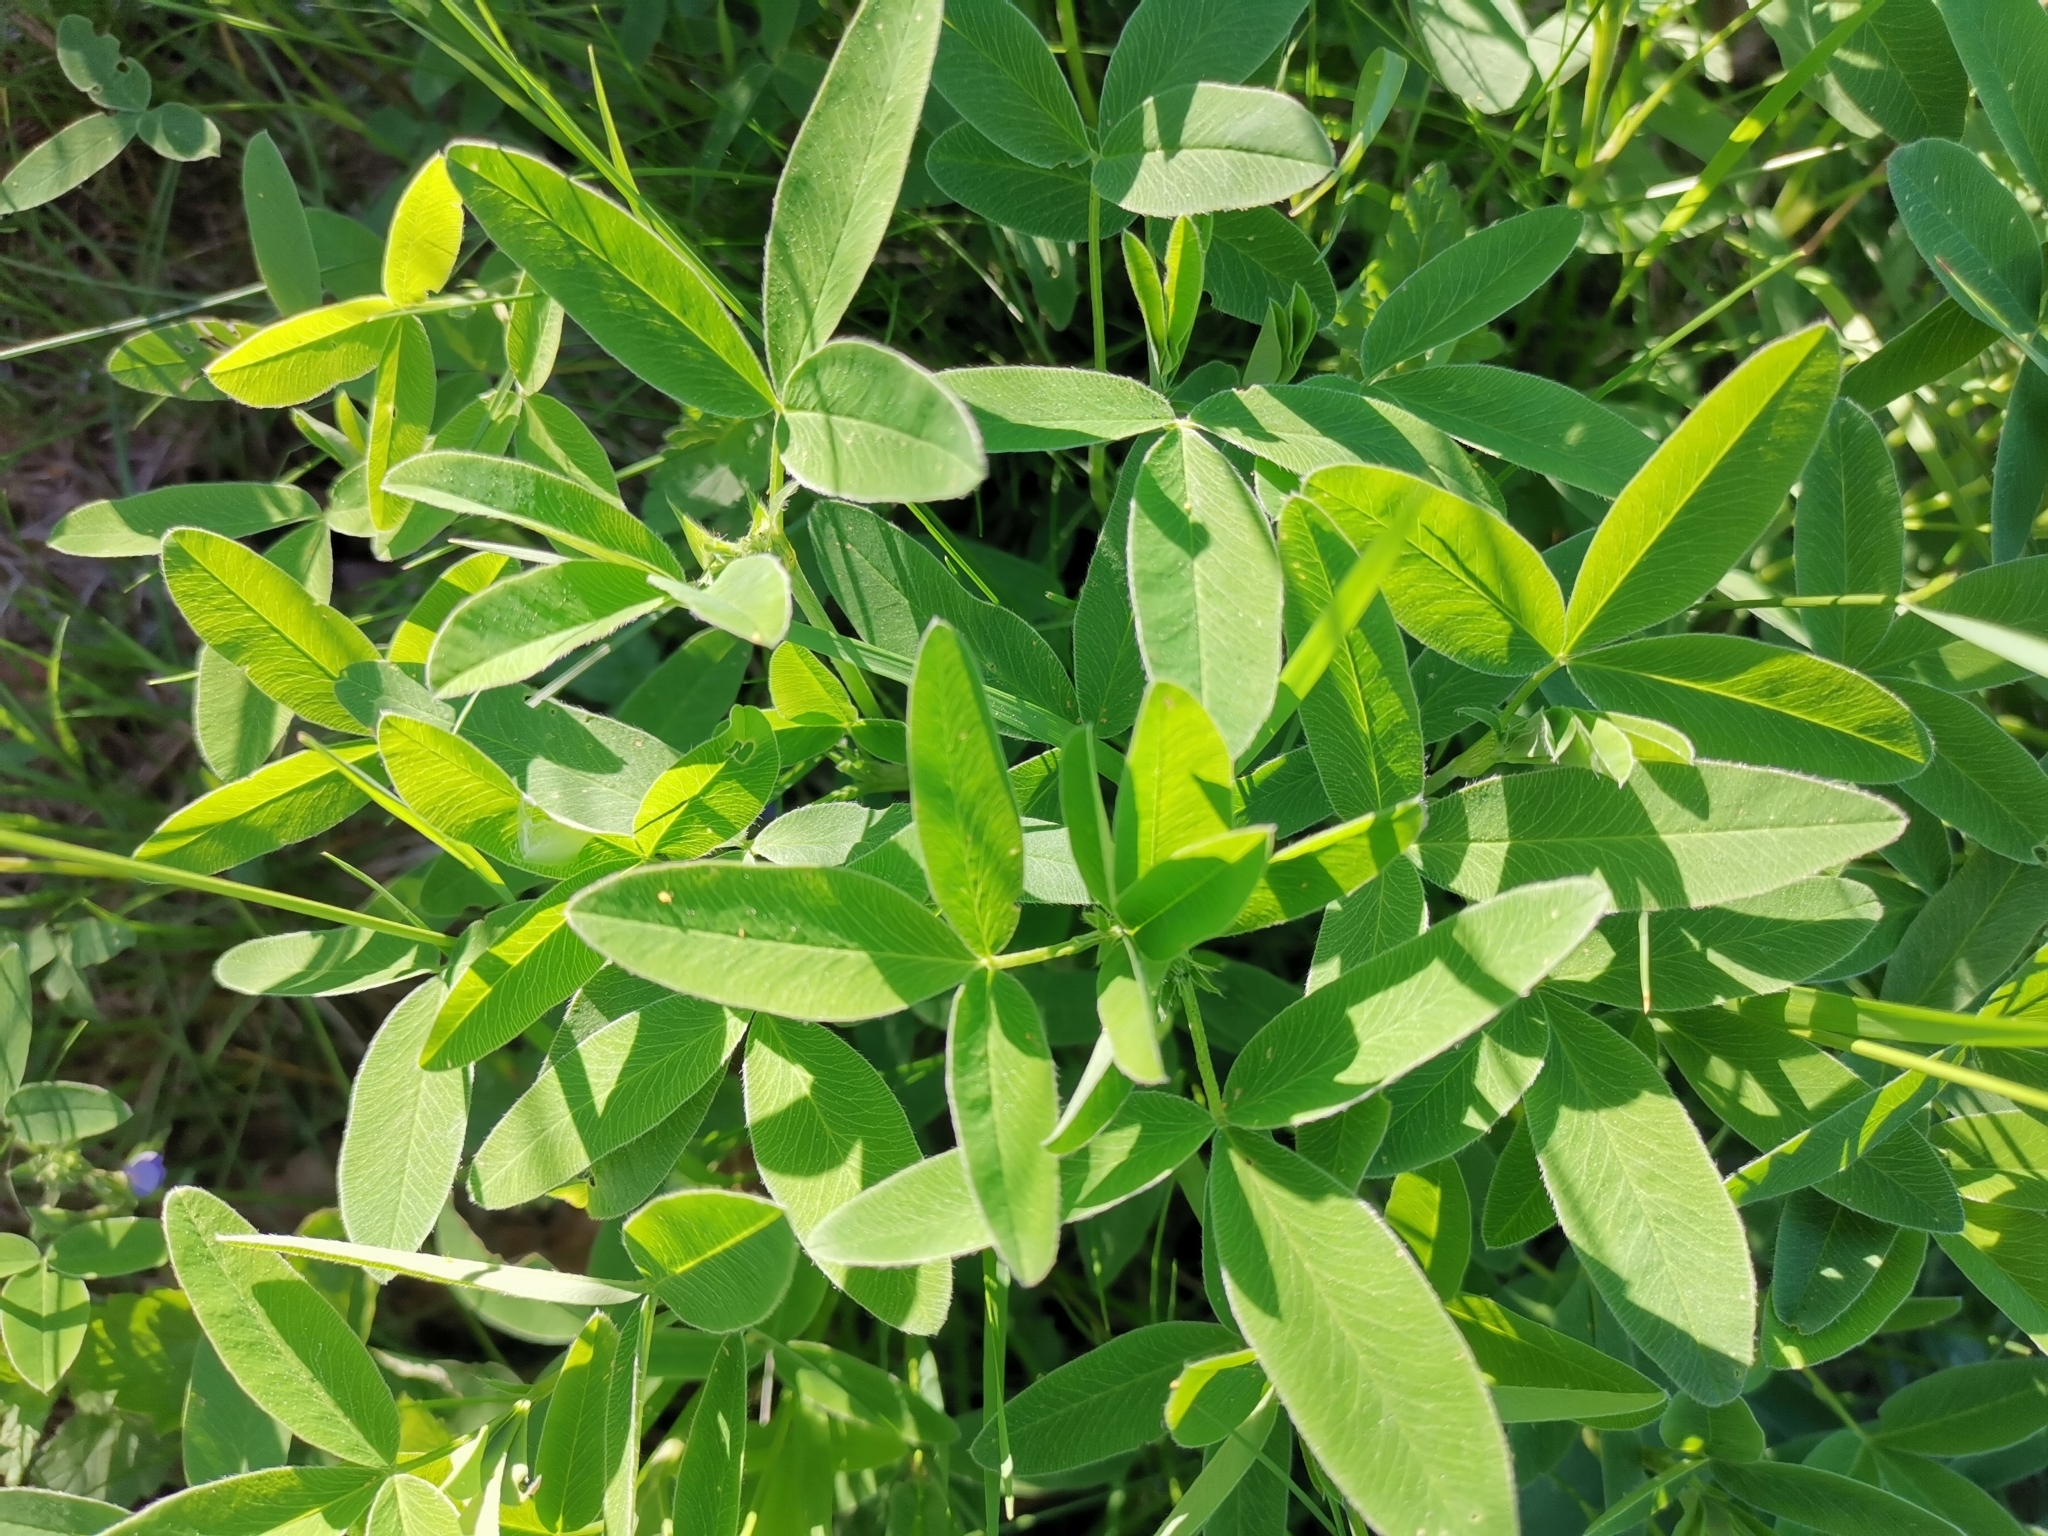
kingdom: Plantae
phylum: Tracheophyta
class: Magnoliopsida
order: Fabales
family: Fabaceae
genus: Trifolium
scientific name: Trifolium medium
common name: Zigzag clover
